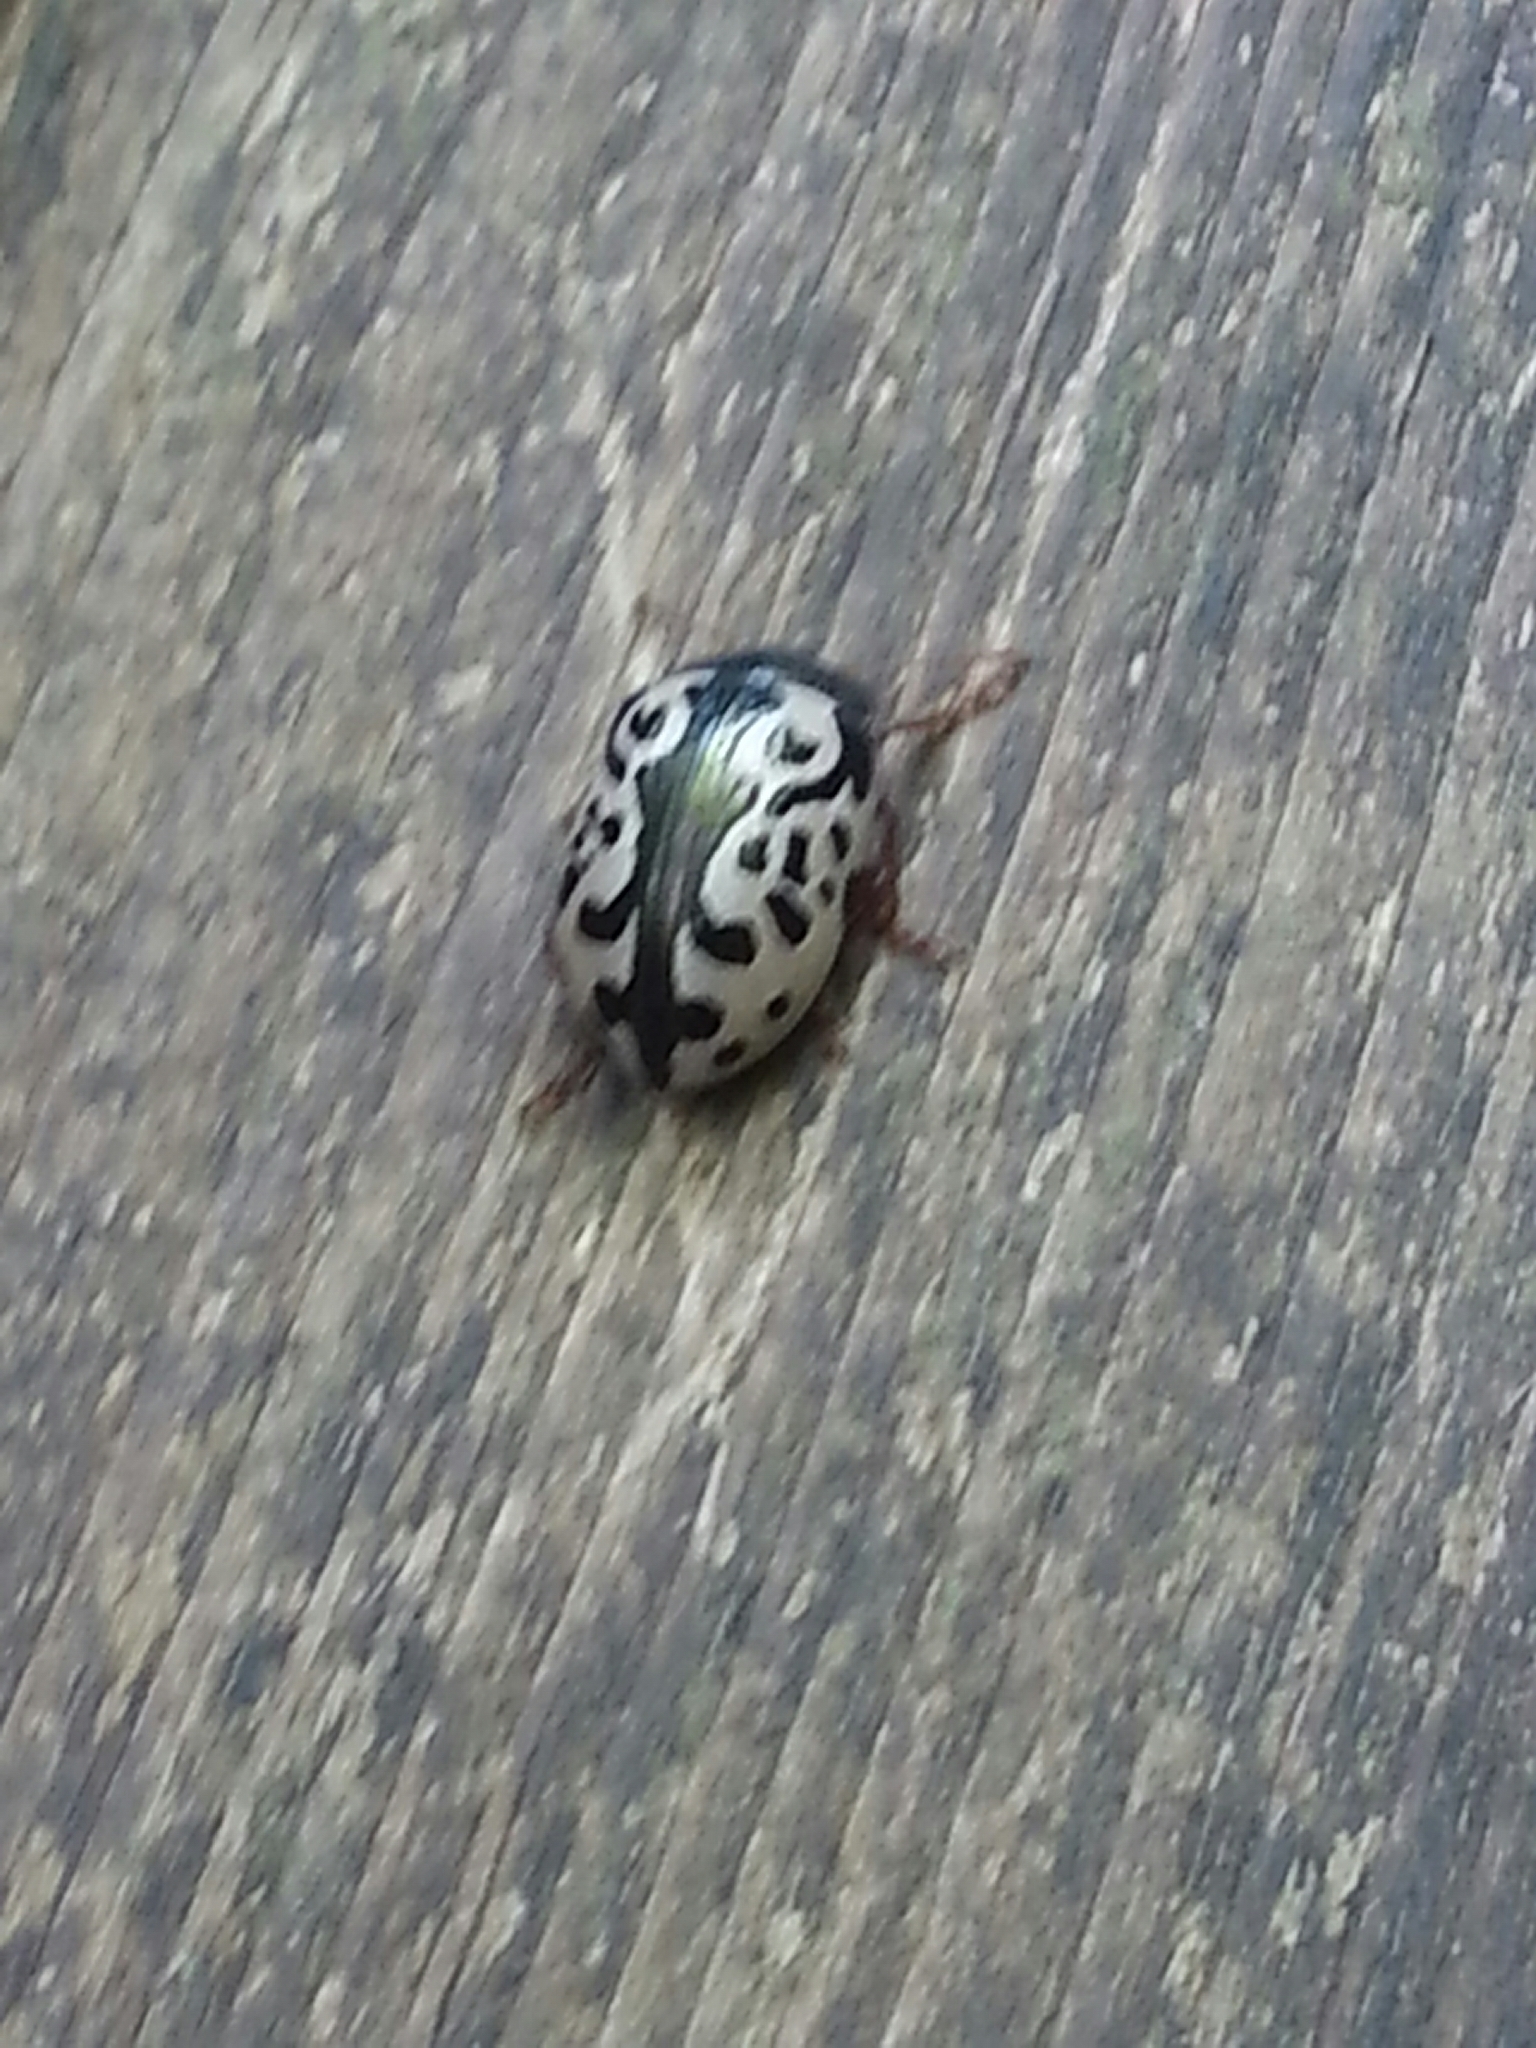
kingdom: Animalia
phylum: Arthropoda
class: Insecta
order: Coleoptera
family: Chrysomelidae
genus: Calligrapha
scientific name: Calligrapha ignota
